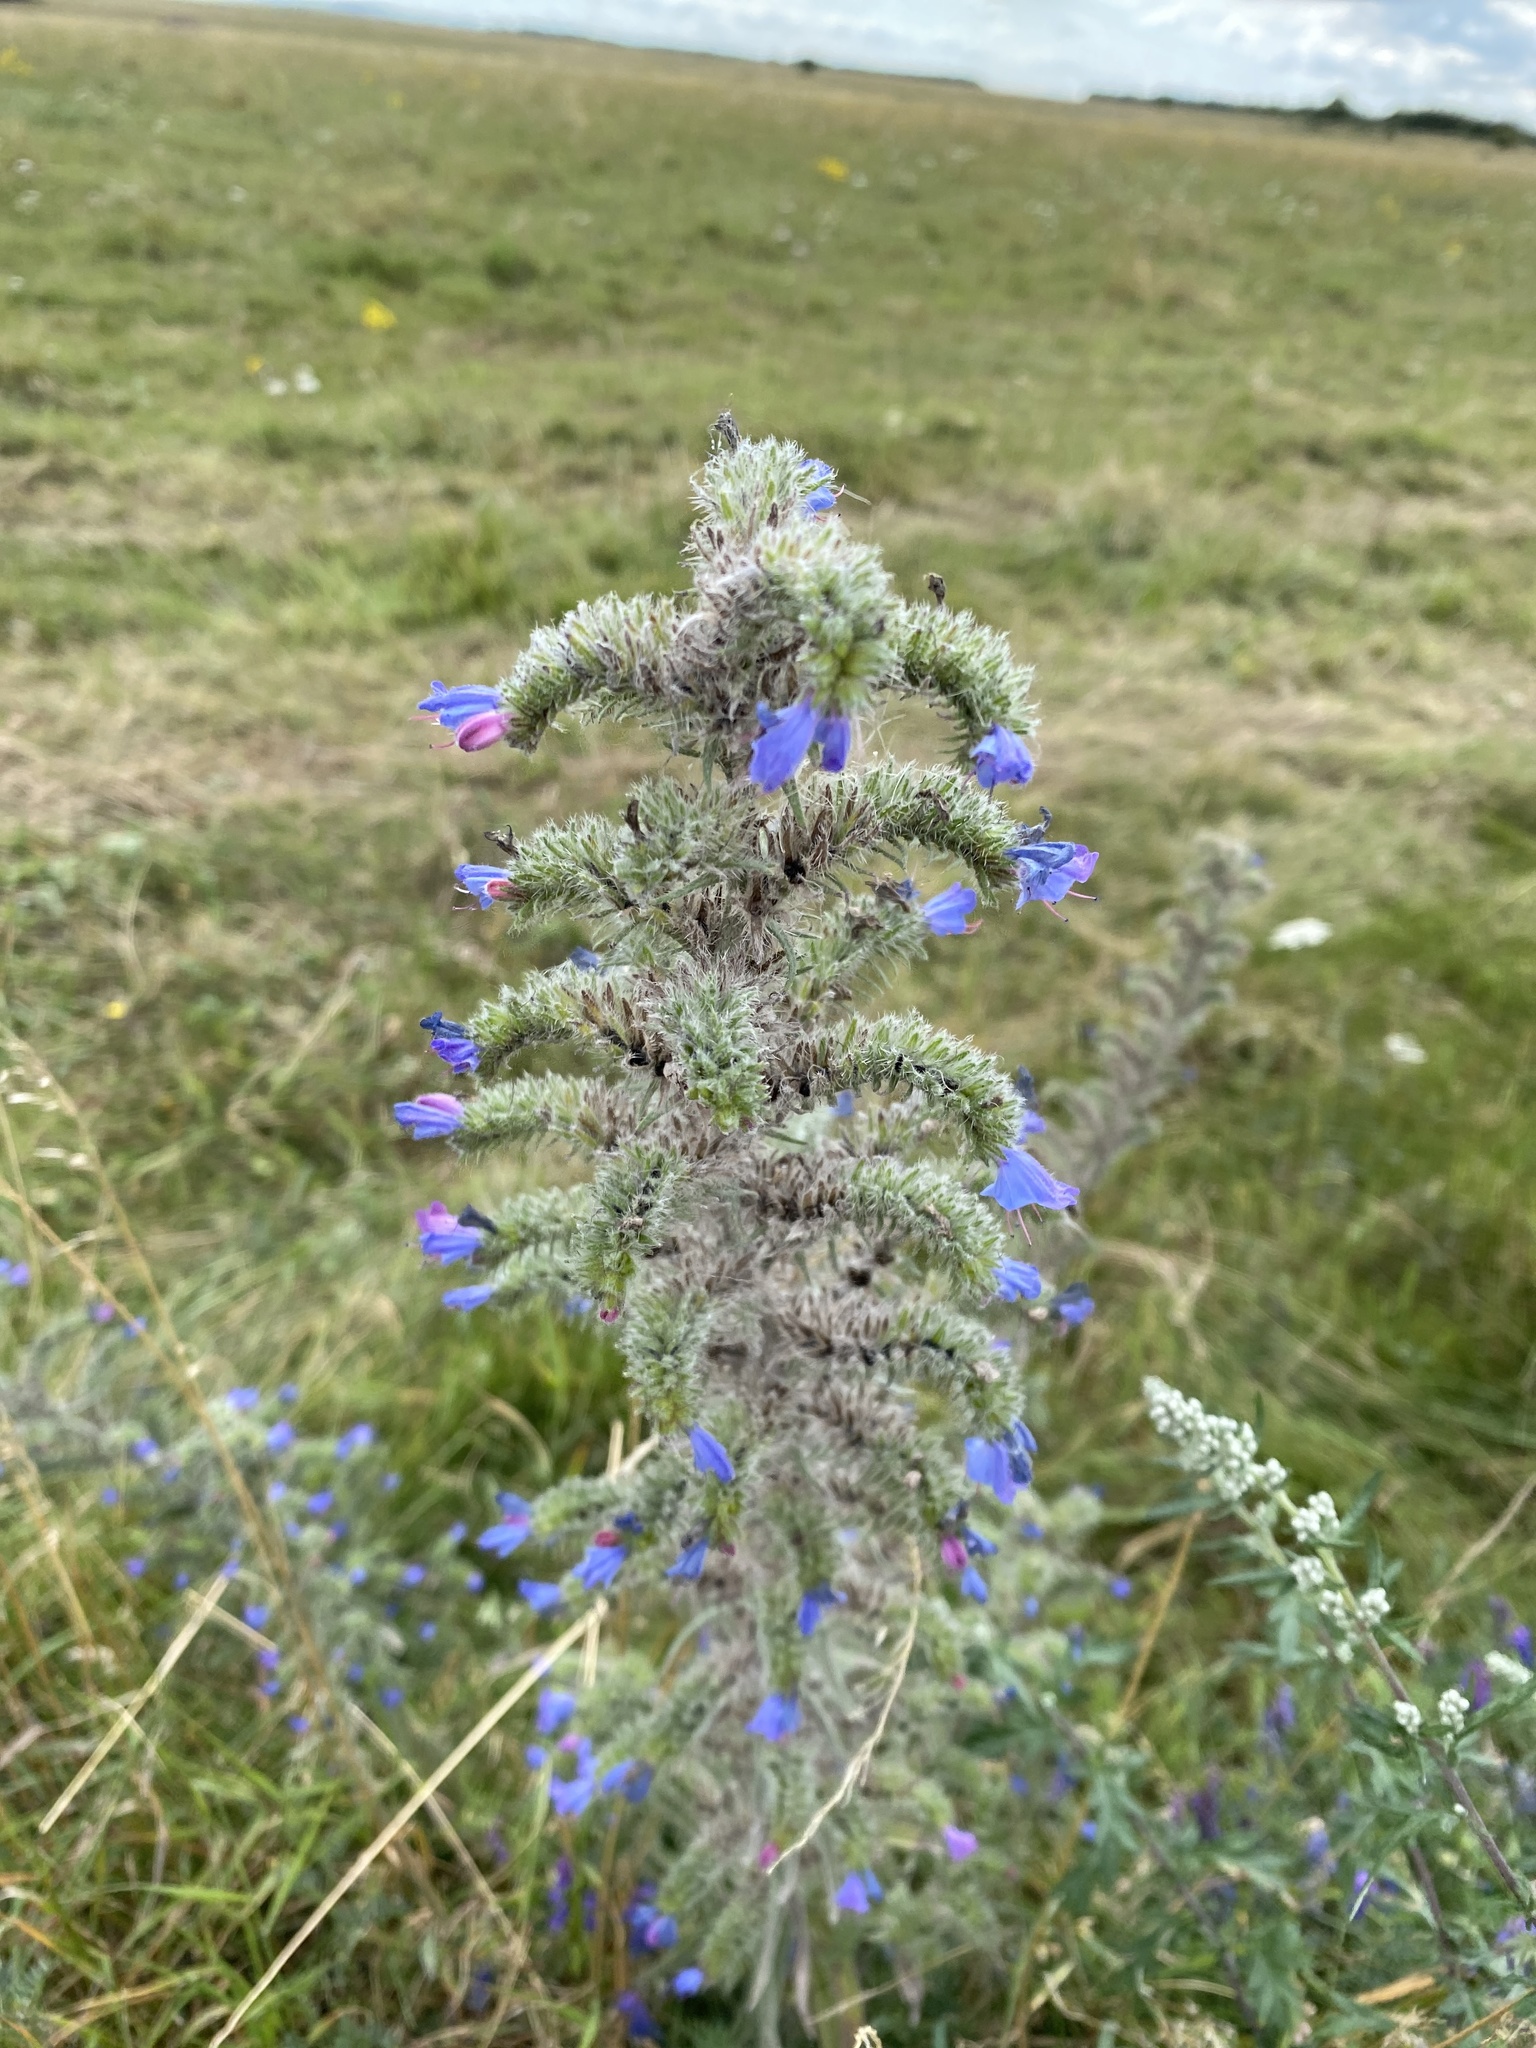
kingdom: Plantae
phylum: Tracheophyta
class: Magnoliopsida
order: Boraginales
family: Boraginaceae
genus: Echium
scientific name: Echium vulgare
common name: Common viper's bugloss
